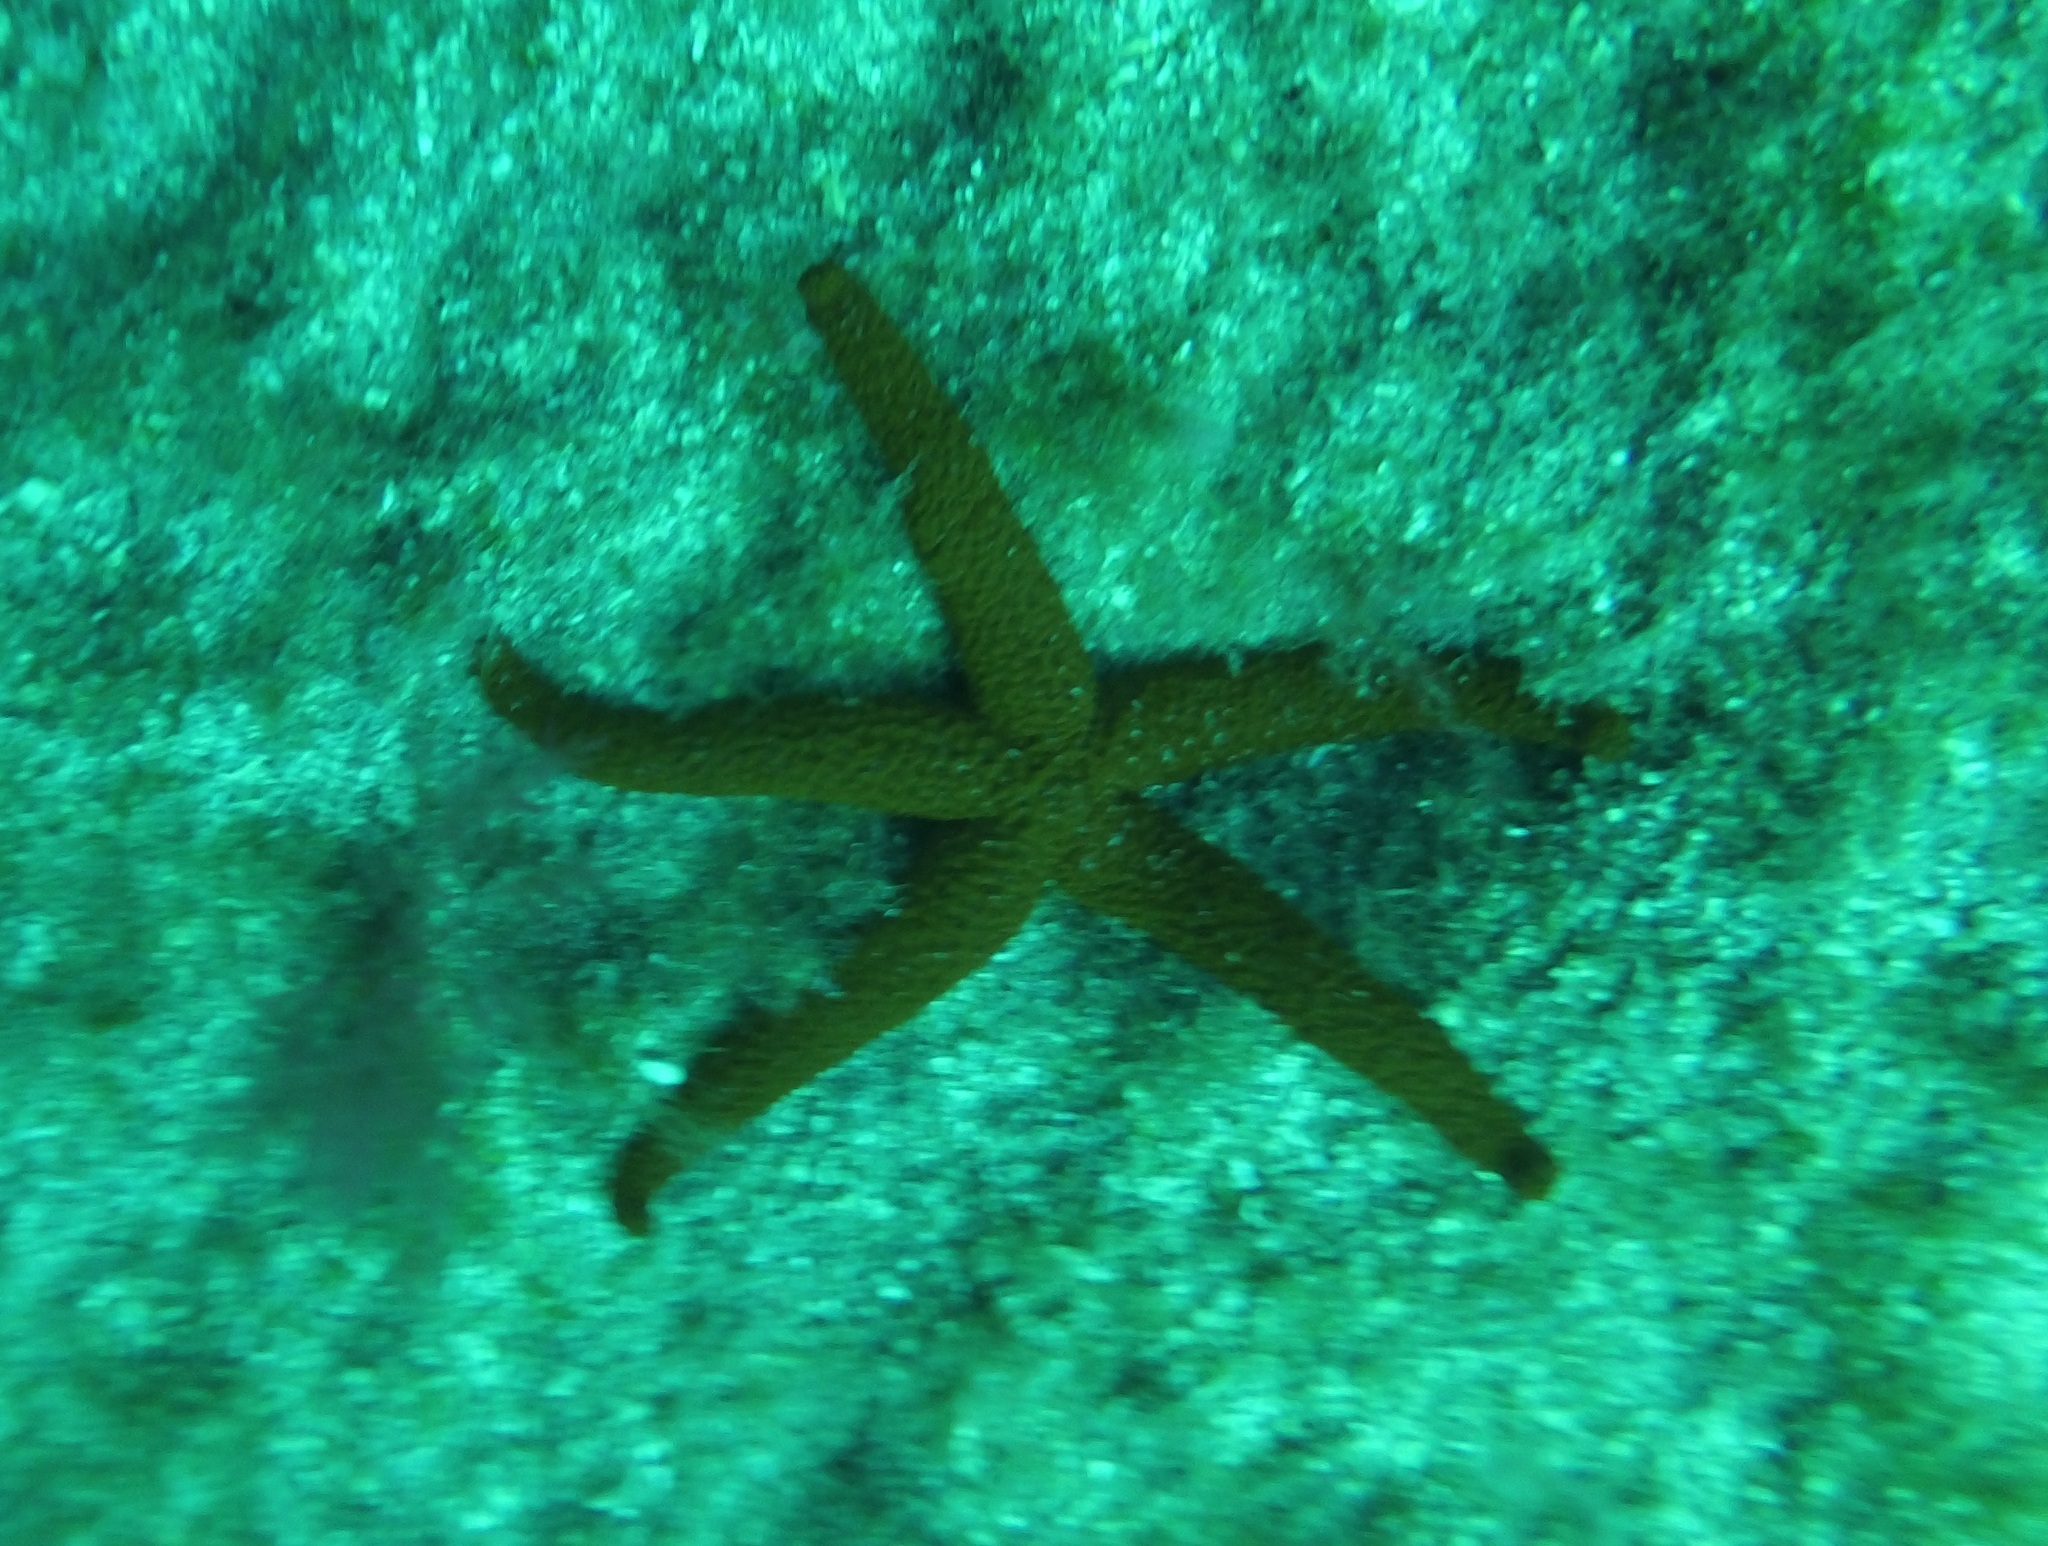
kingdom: Animalia
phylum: Echinodermata
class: Asteroidea
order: Spinulosida
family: Echinasteridae
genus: Echinaster
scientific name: Echinaster sepositus
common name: Red starfish
